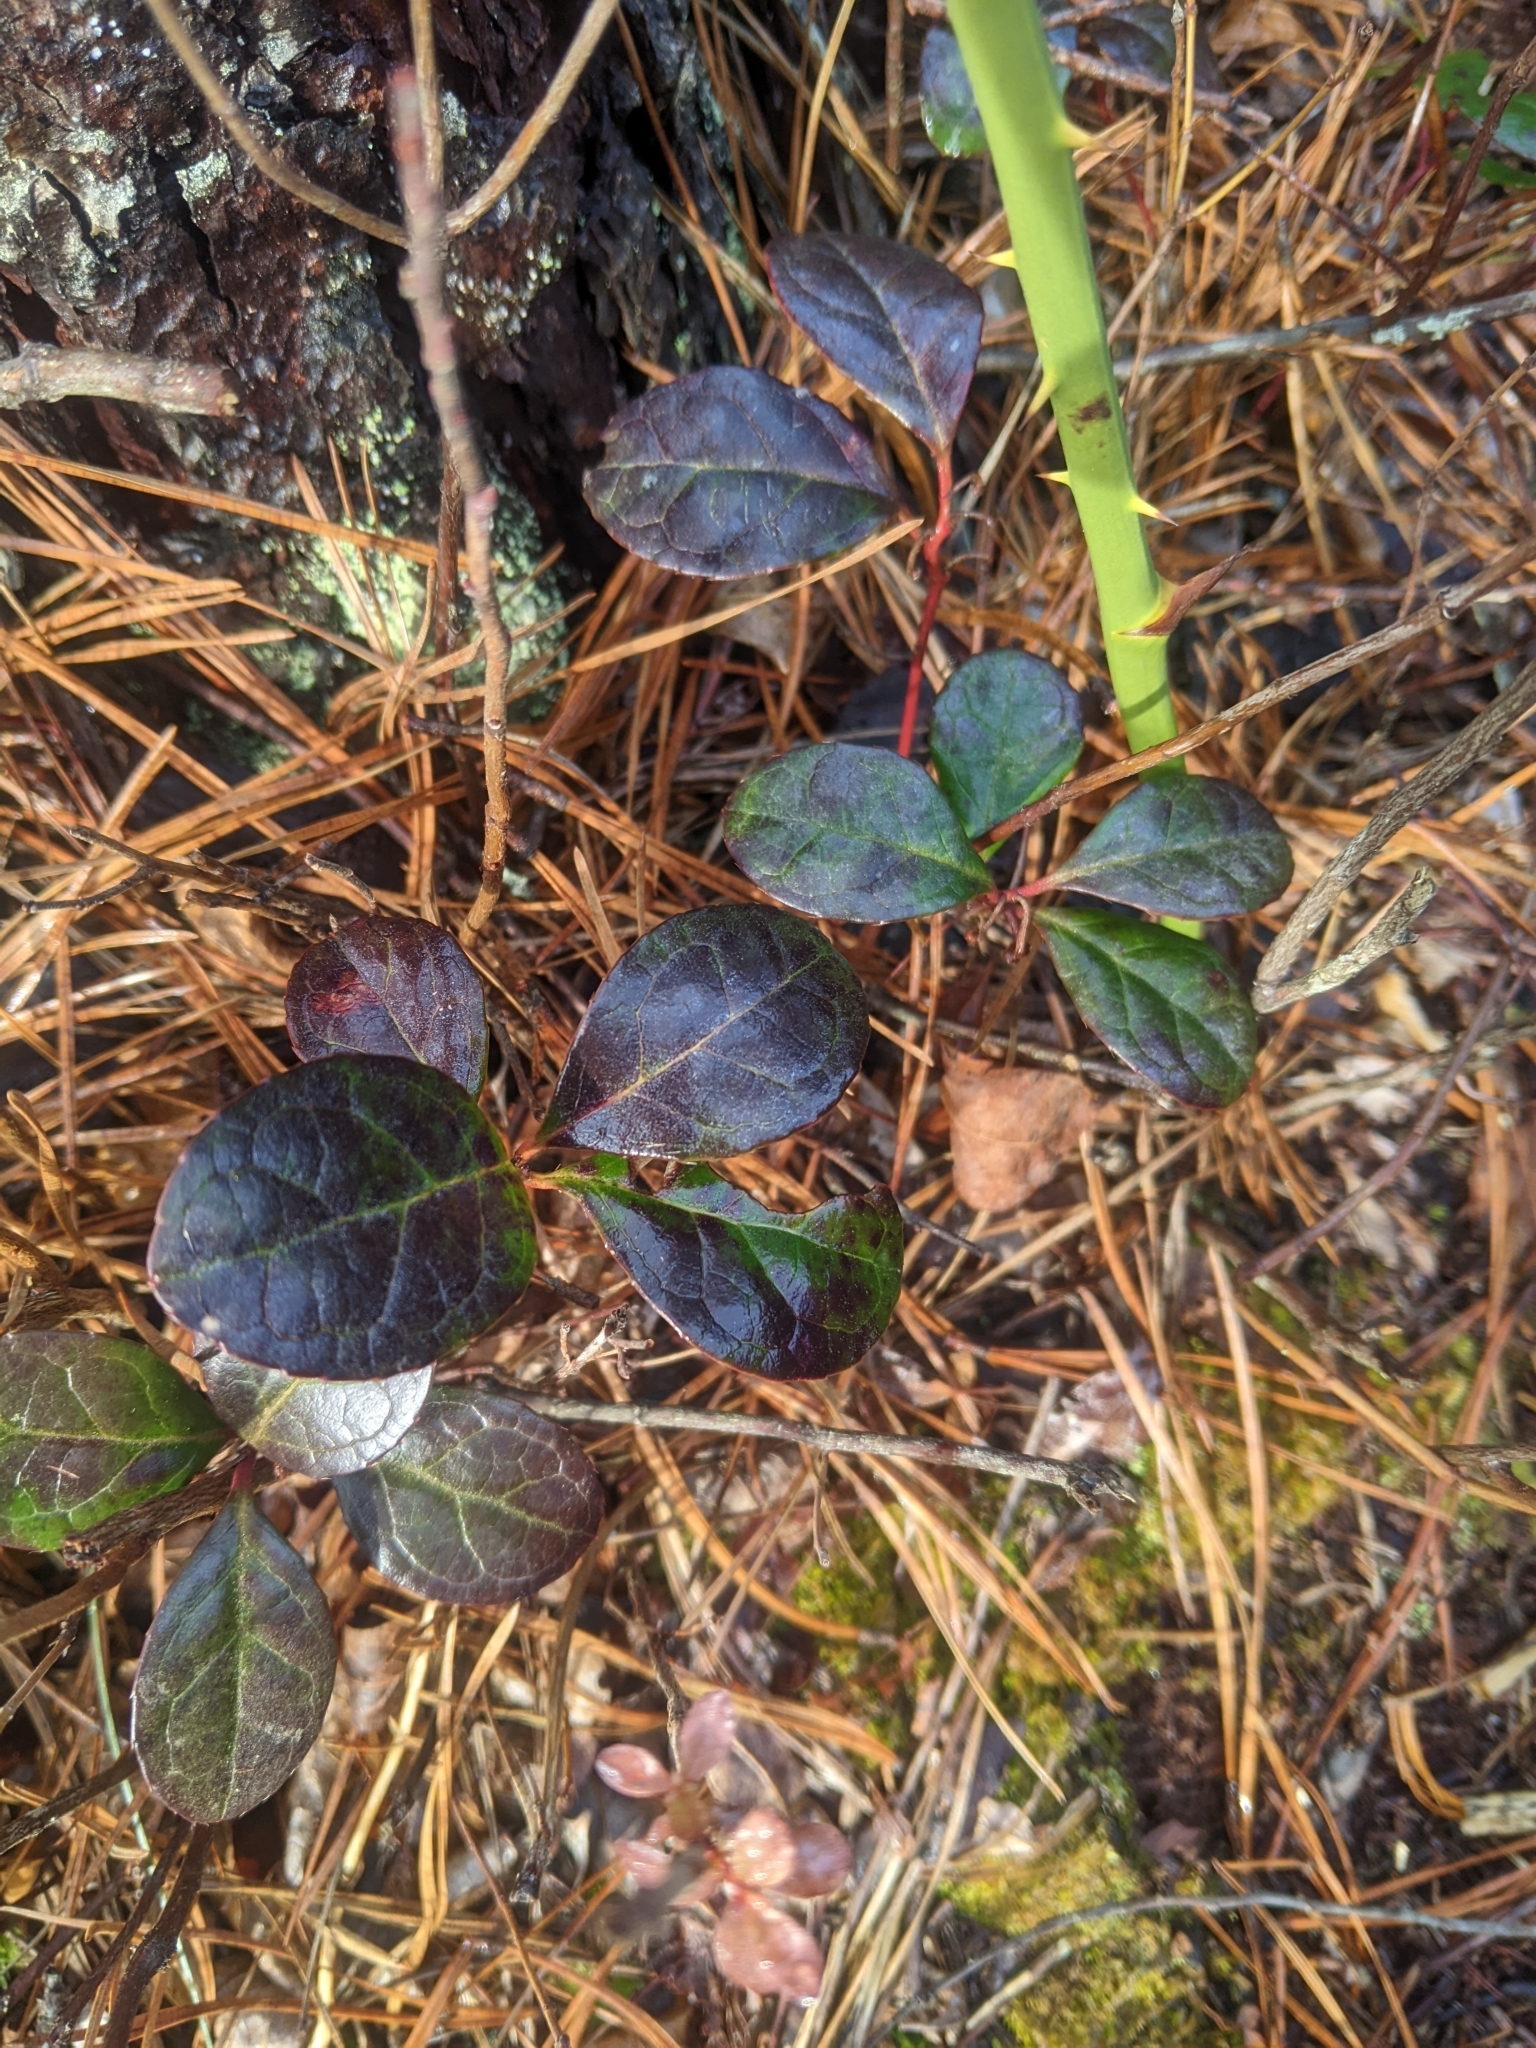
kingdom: Plantae
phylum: Tracheophyta
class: Magnoliopsida
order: Ericales
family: Ericaceae
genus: Gaultheria
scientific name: Gaultheria procumbens
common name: Checkerberry
